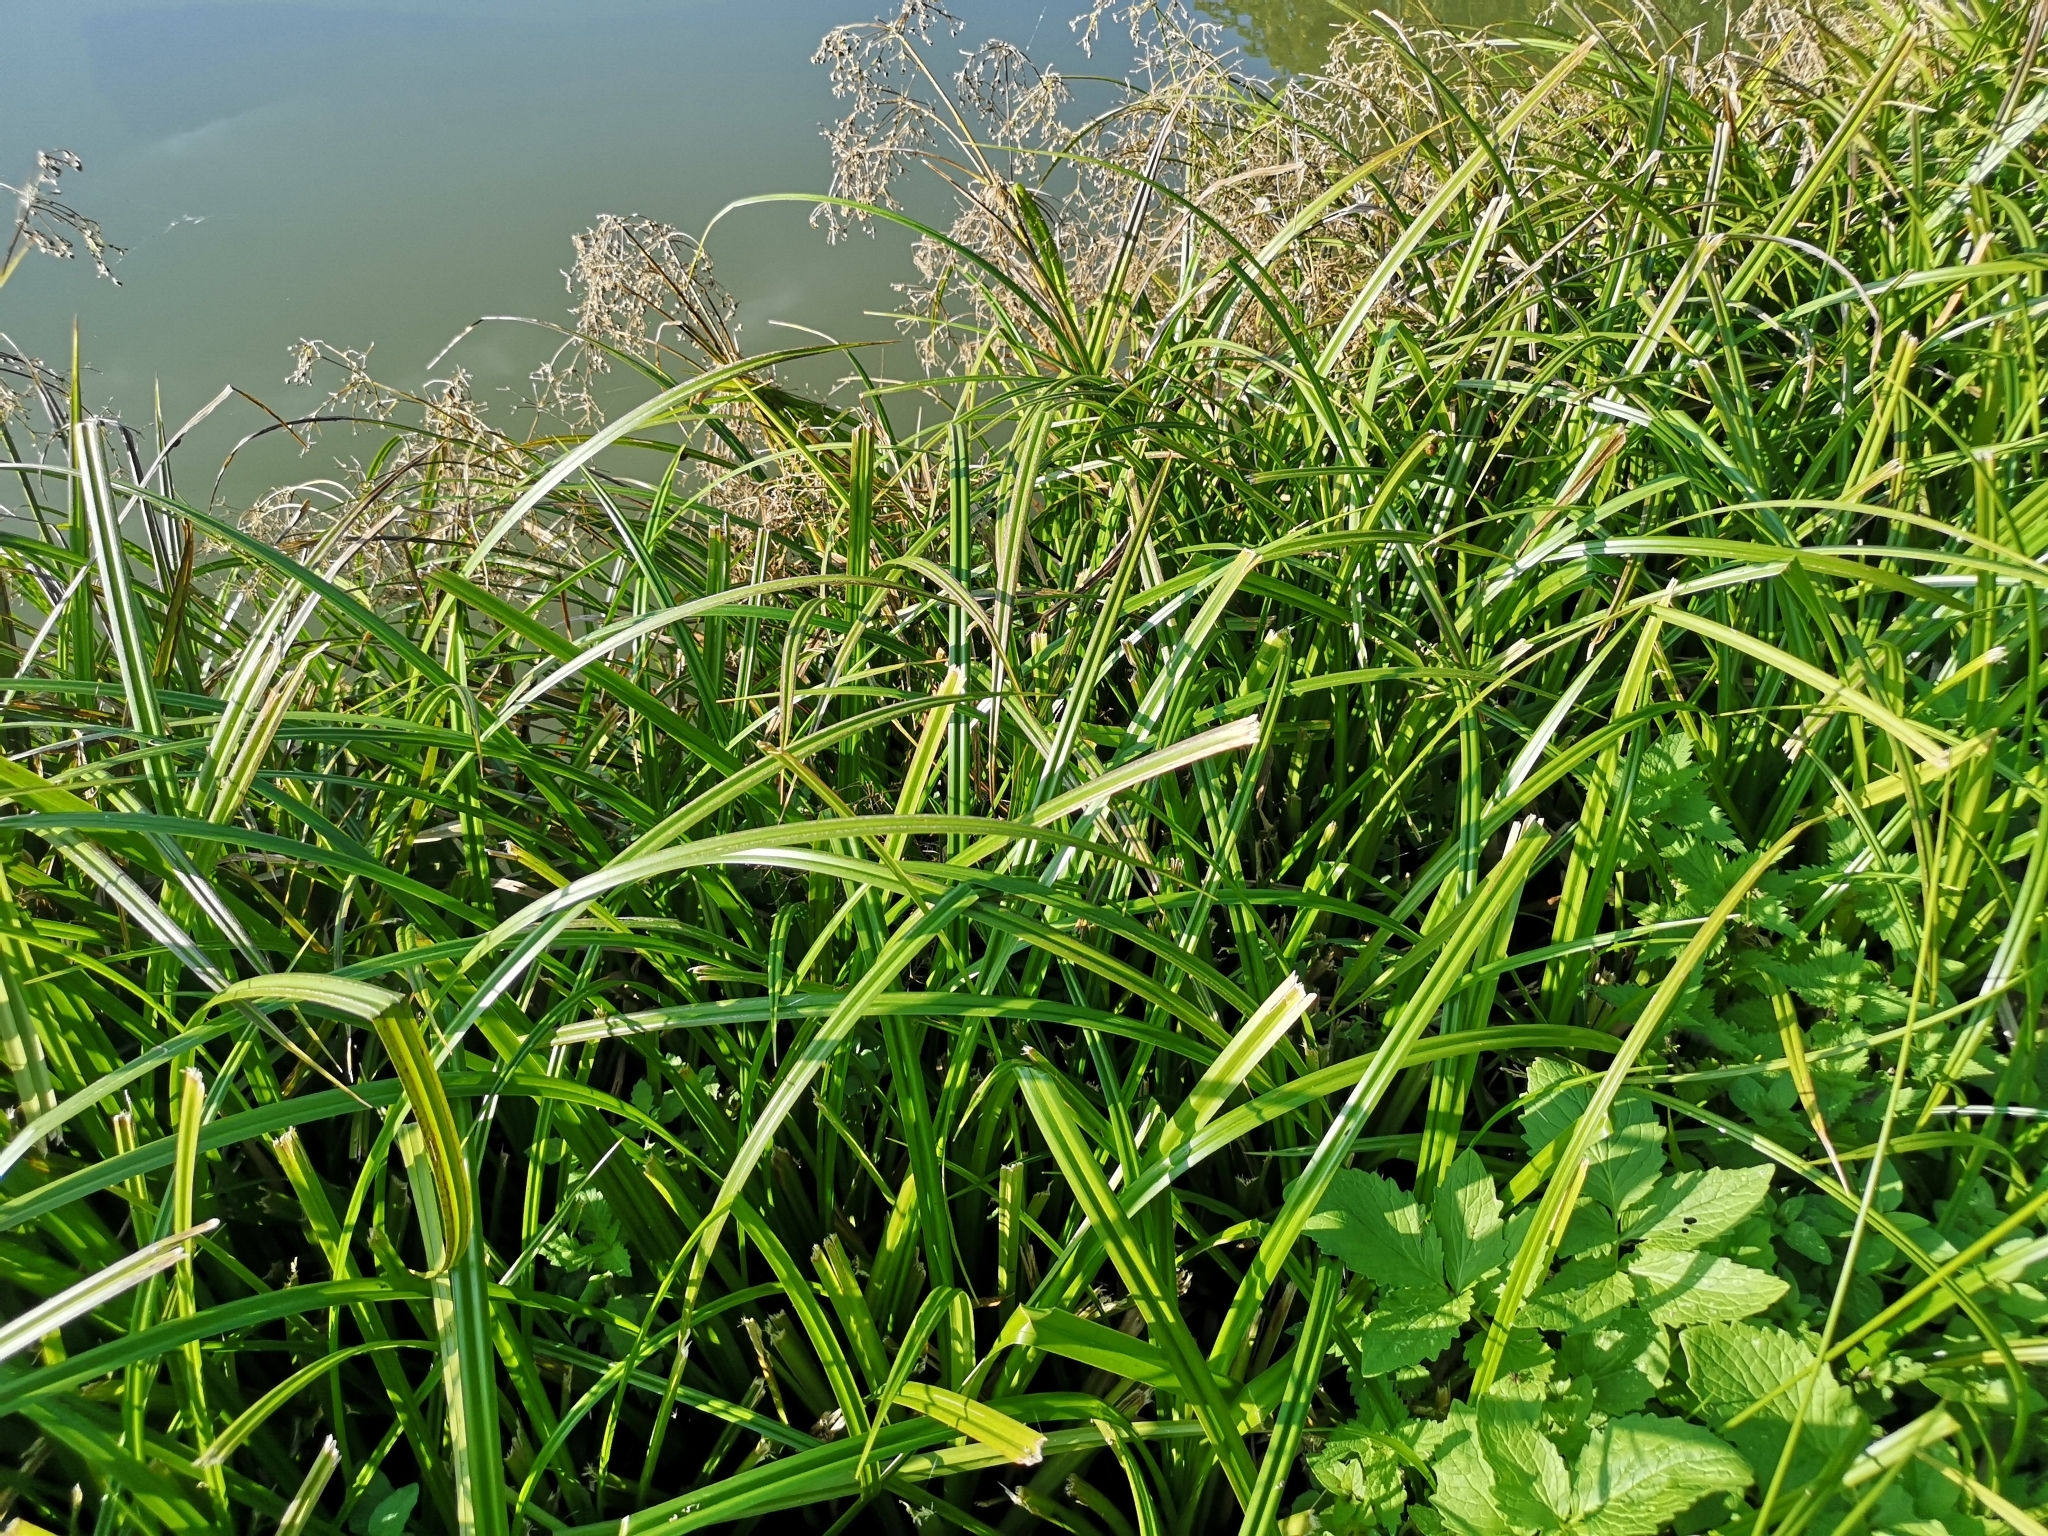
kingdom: Plantae
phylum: Tracheophyta
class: Liliopsida
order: Poales
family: Cyperaceae
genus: Scirpus
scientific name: Scirpus sylvaticus
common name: Wood club-rush
